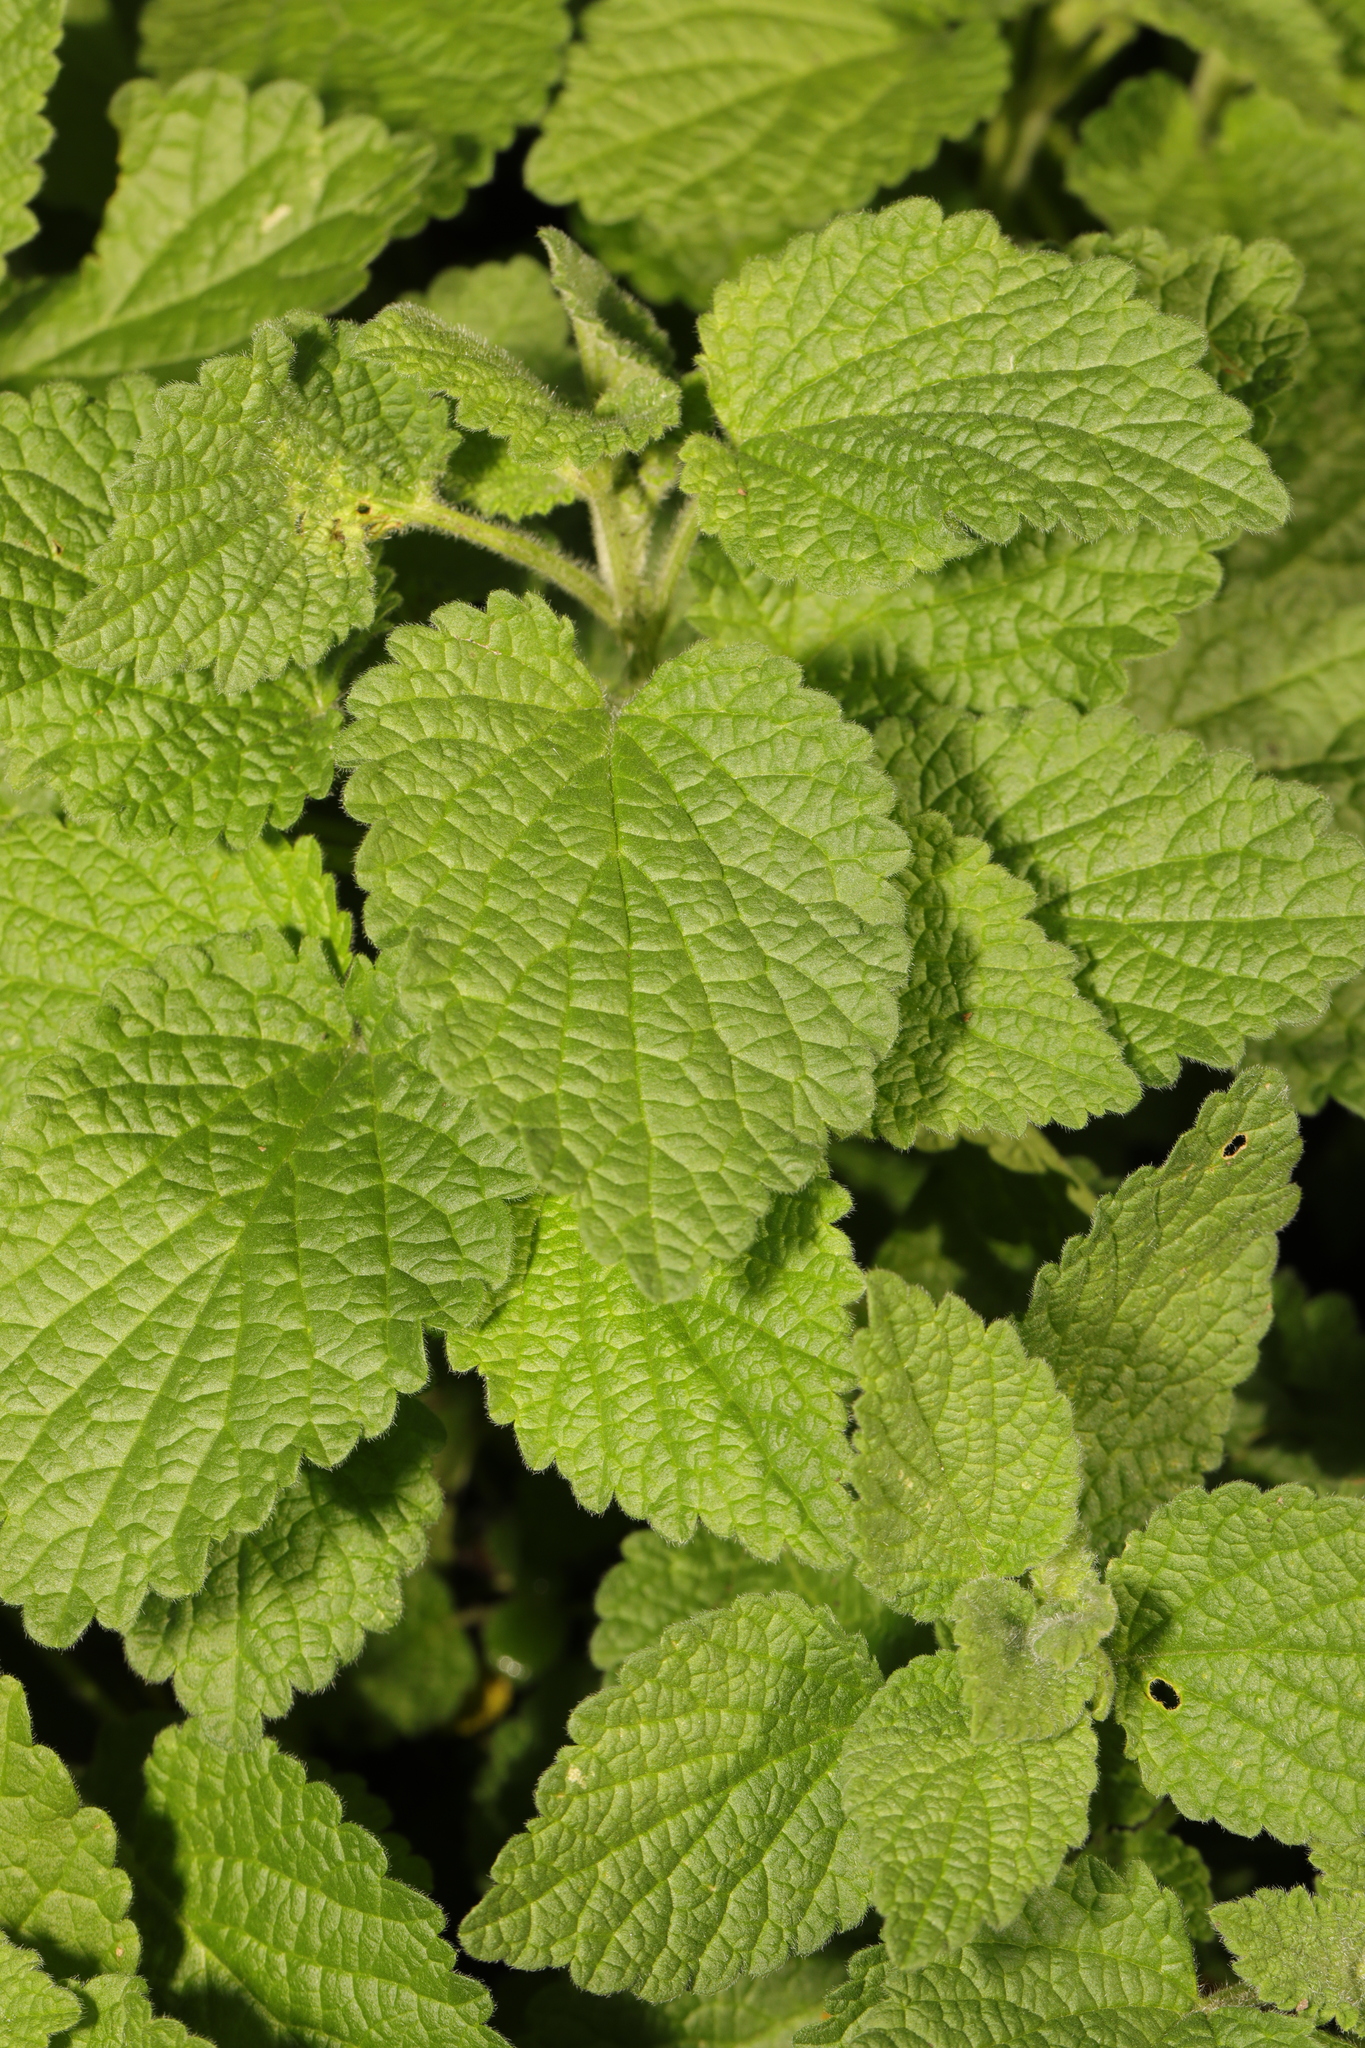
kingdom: Plantae
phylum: Tracheophyta
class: Magnoliopsida
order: Lamiales
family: Lamiaceae
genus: Ballota
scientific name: Ballota nigra
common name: Black horehound
